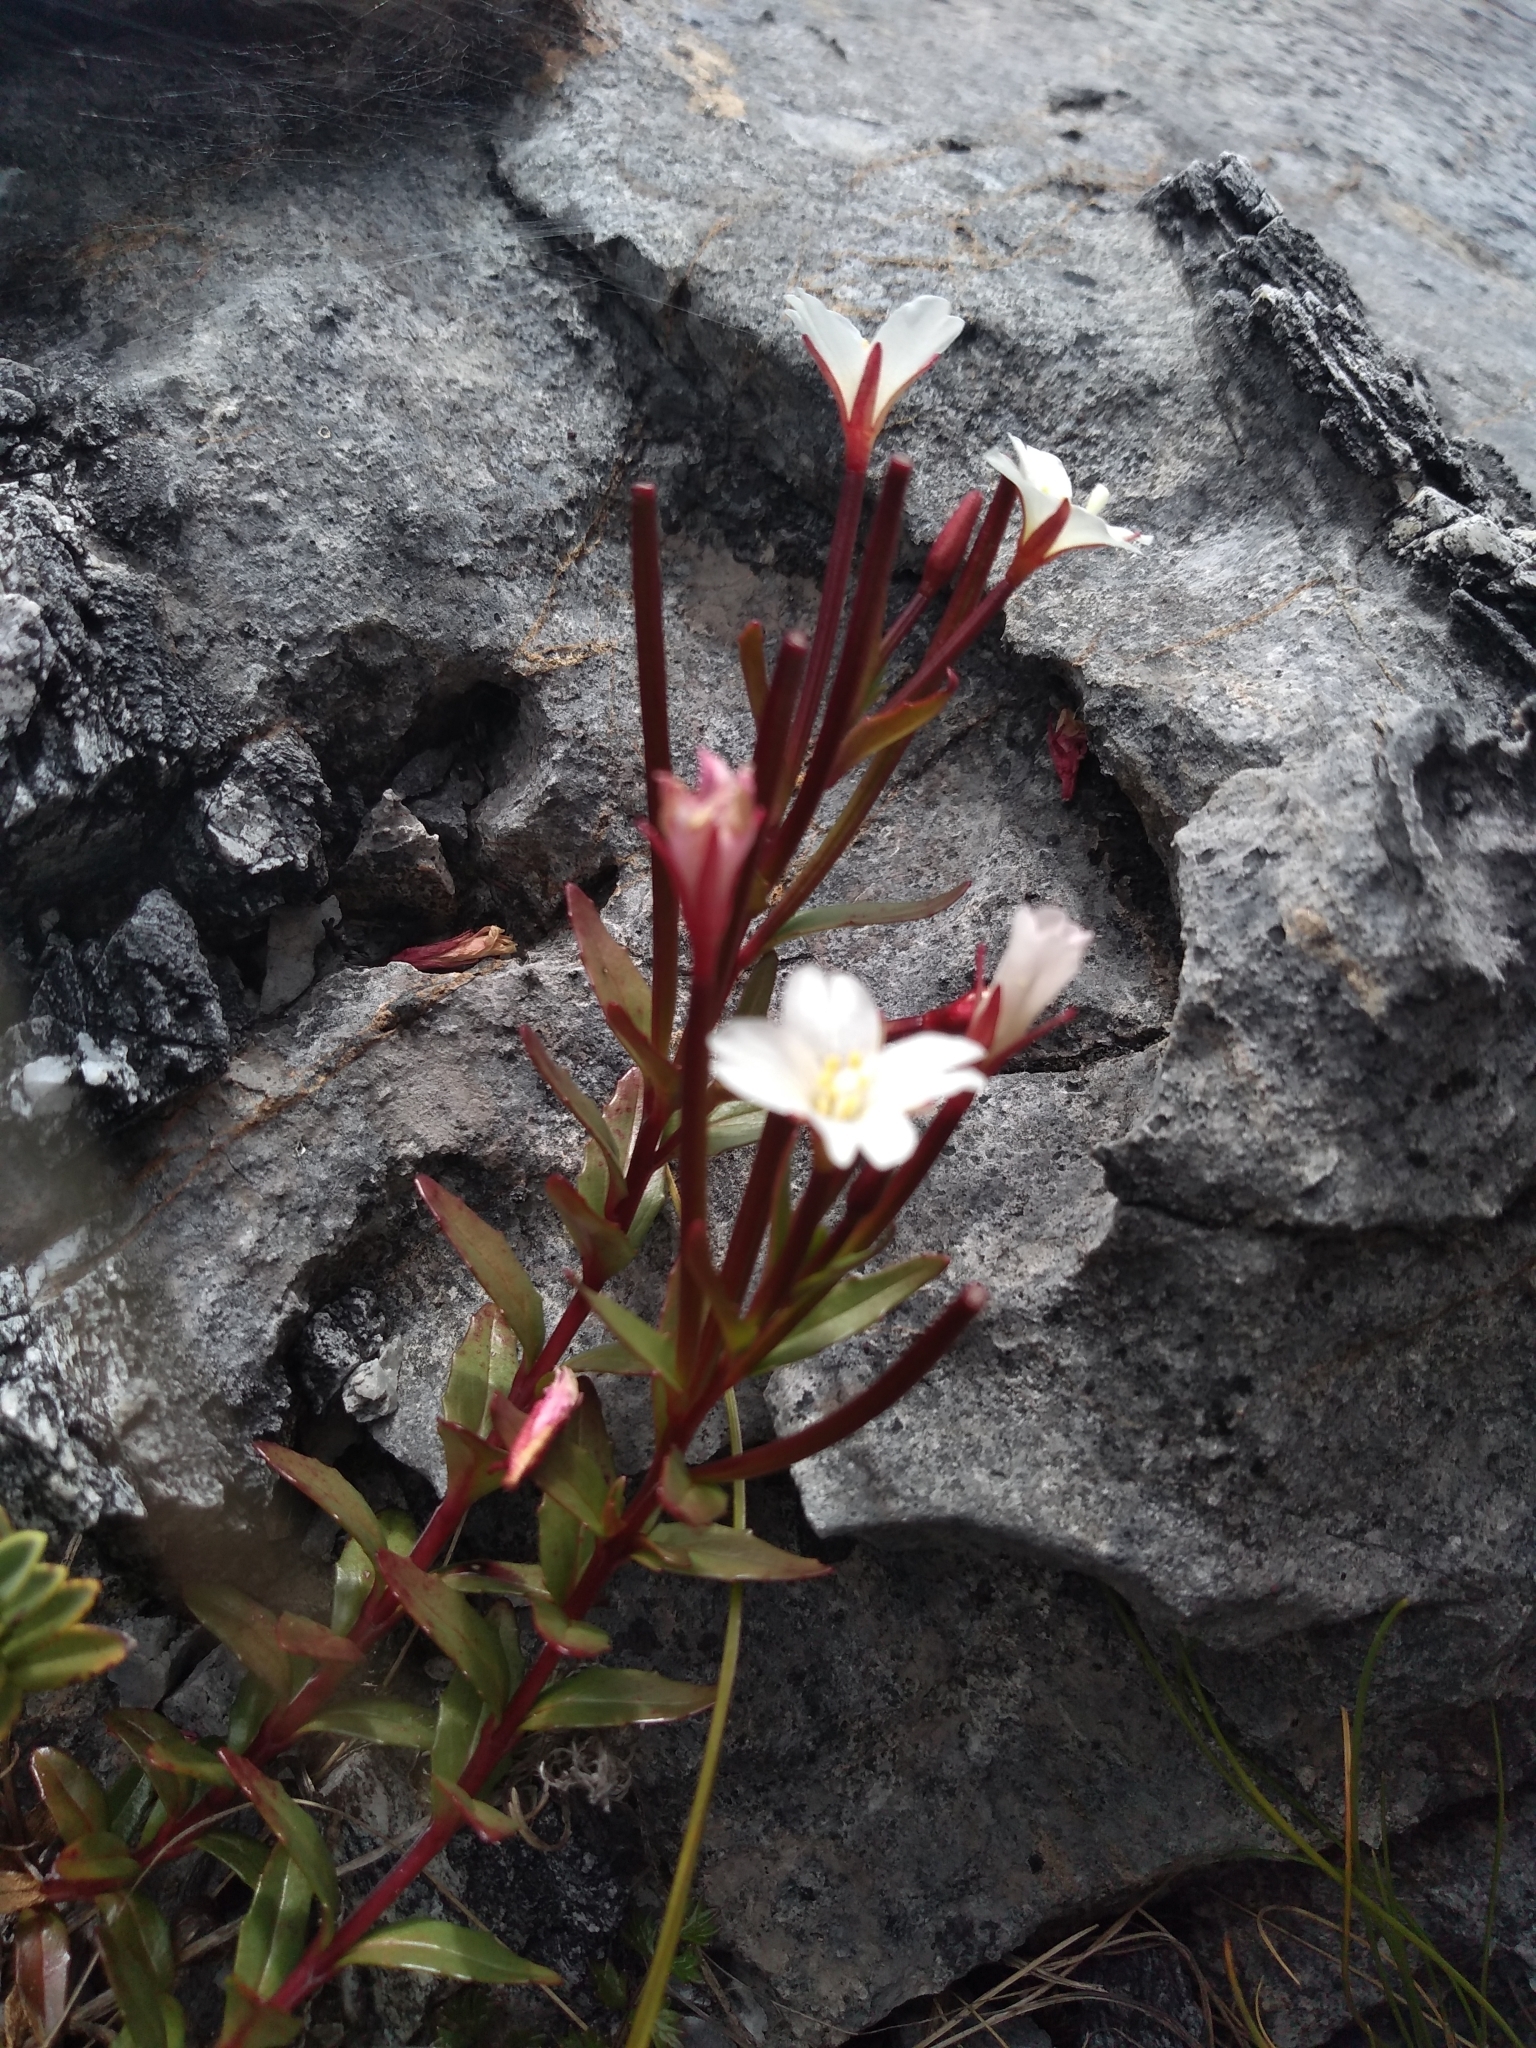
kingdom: Plantae
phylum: Tracheophyta
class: Magnoliopsida
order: Myrtales
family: Onagraceae
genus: Epilobium
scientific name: Epilobium glabellum
